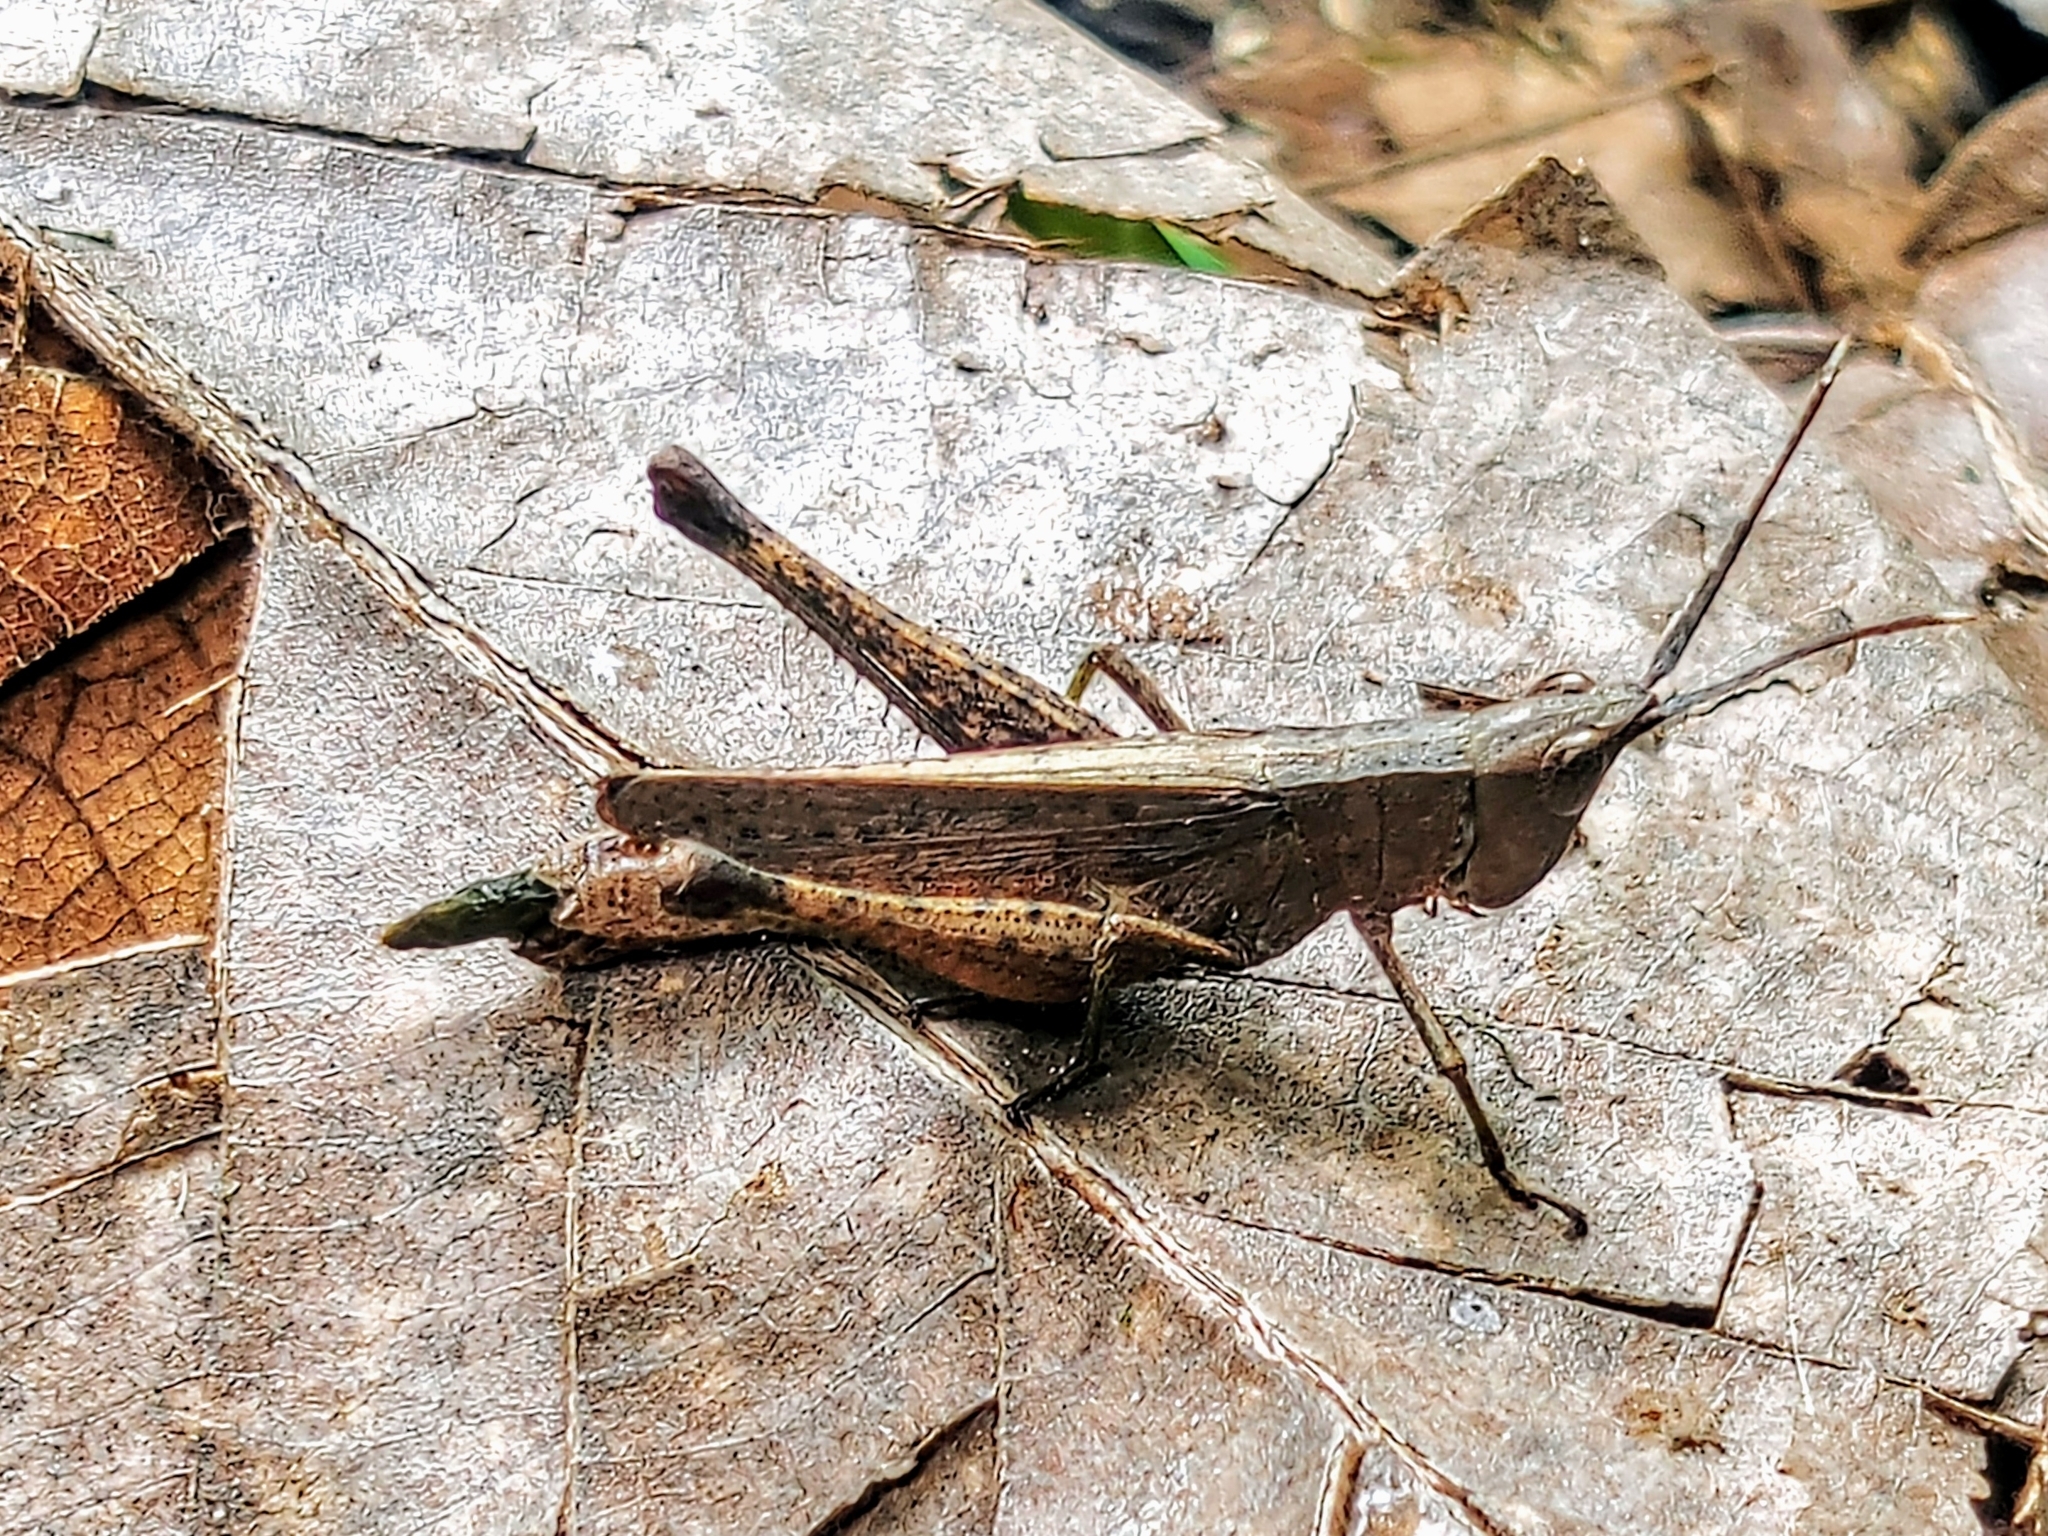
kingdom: Animalia
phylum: Arthropoda
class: Insecta
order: Orthoptera
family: Acrididae
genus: Phlaeoba
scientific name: Phlaeoba antennata
